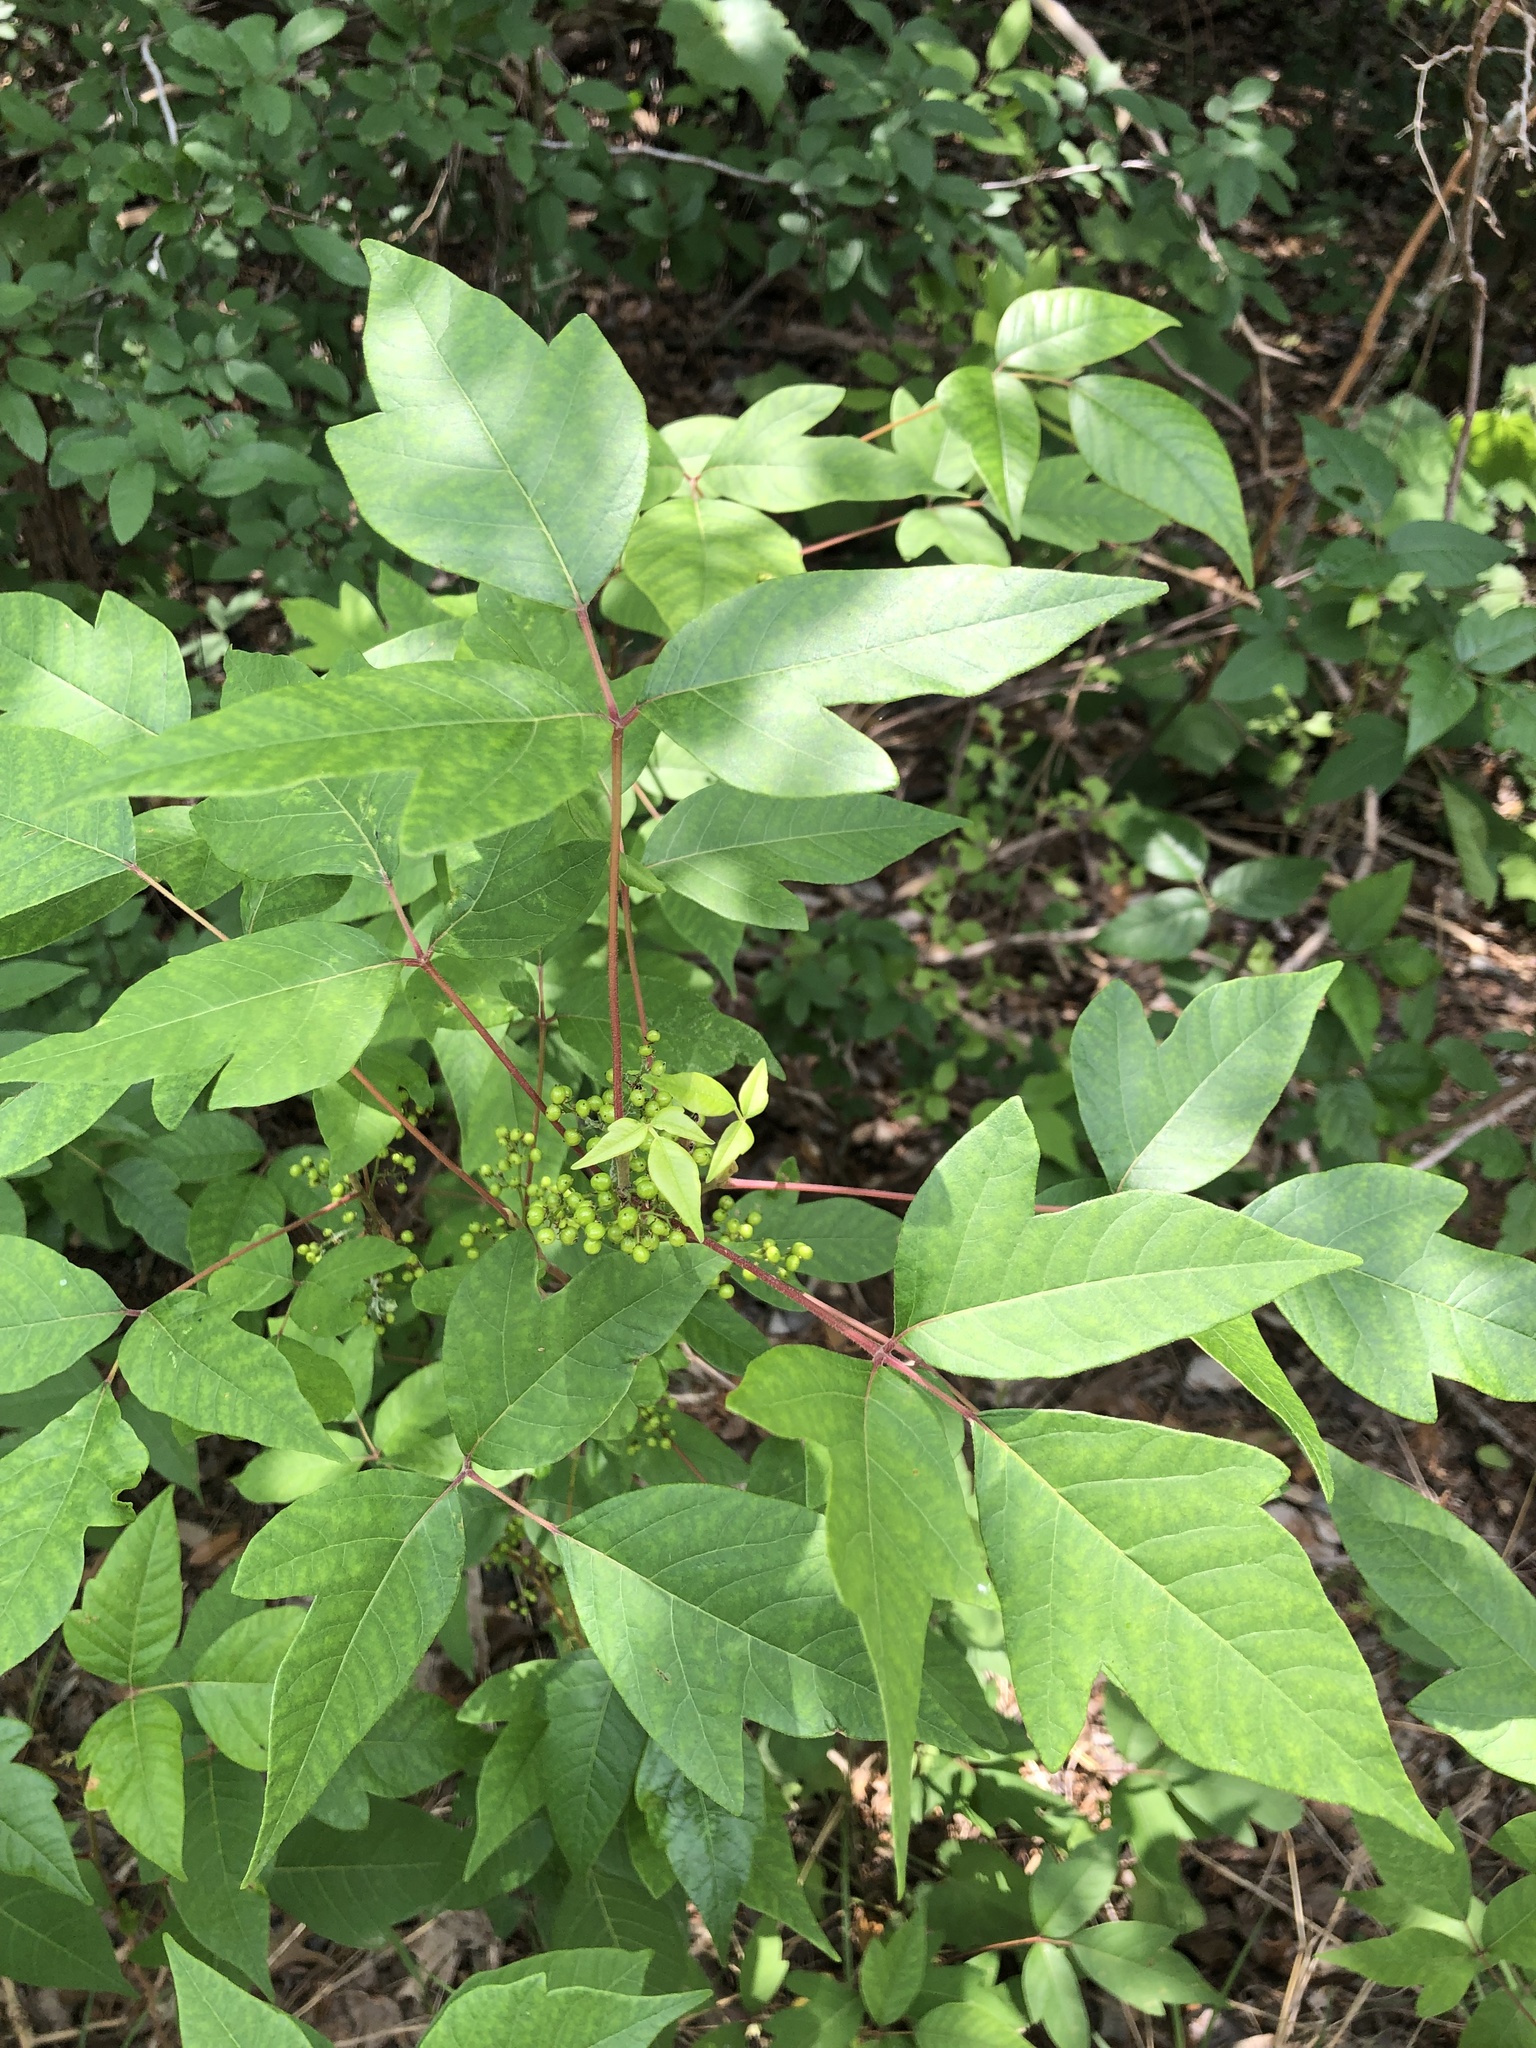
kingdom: Plantae
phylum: Tracheophyta
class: Magnoliopsida
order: Sapindales
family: Anacardiaceae
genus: Toxicodendron
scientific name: Toxicodendron radicans
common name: Poison ivy
